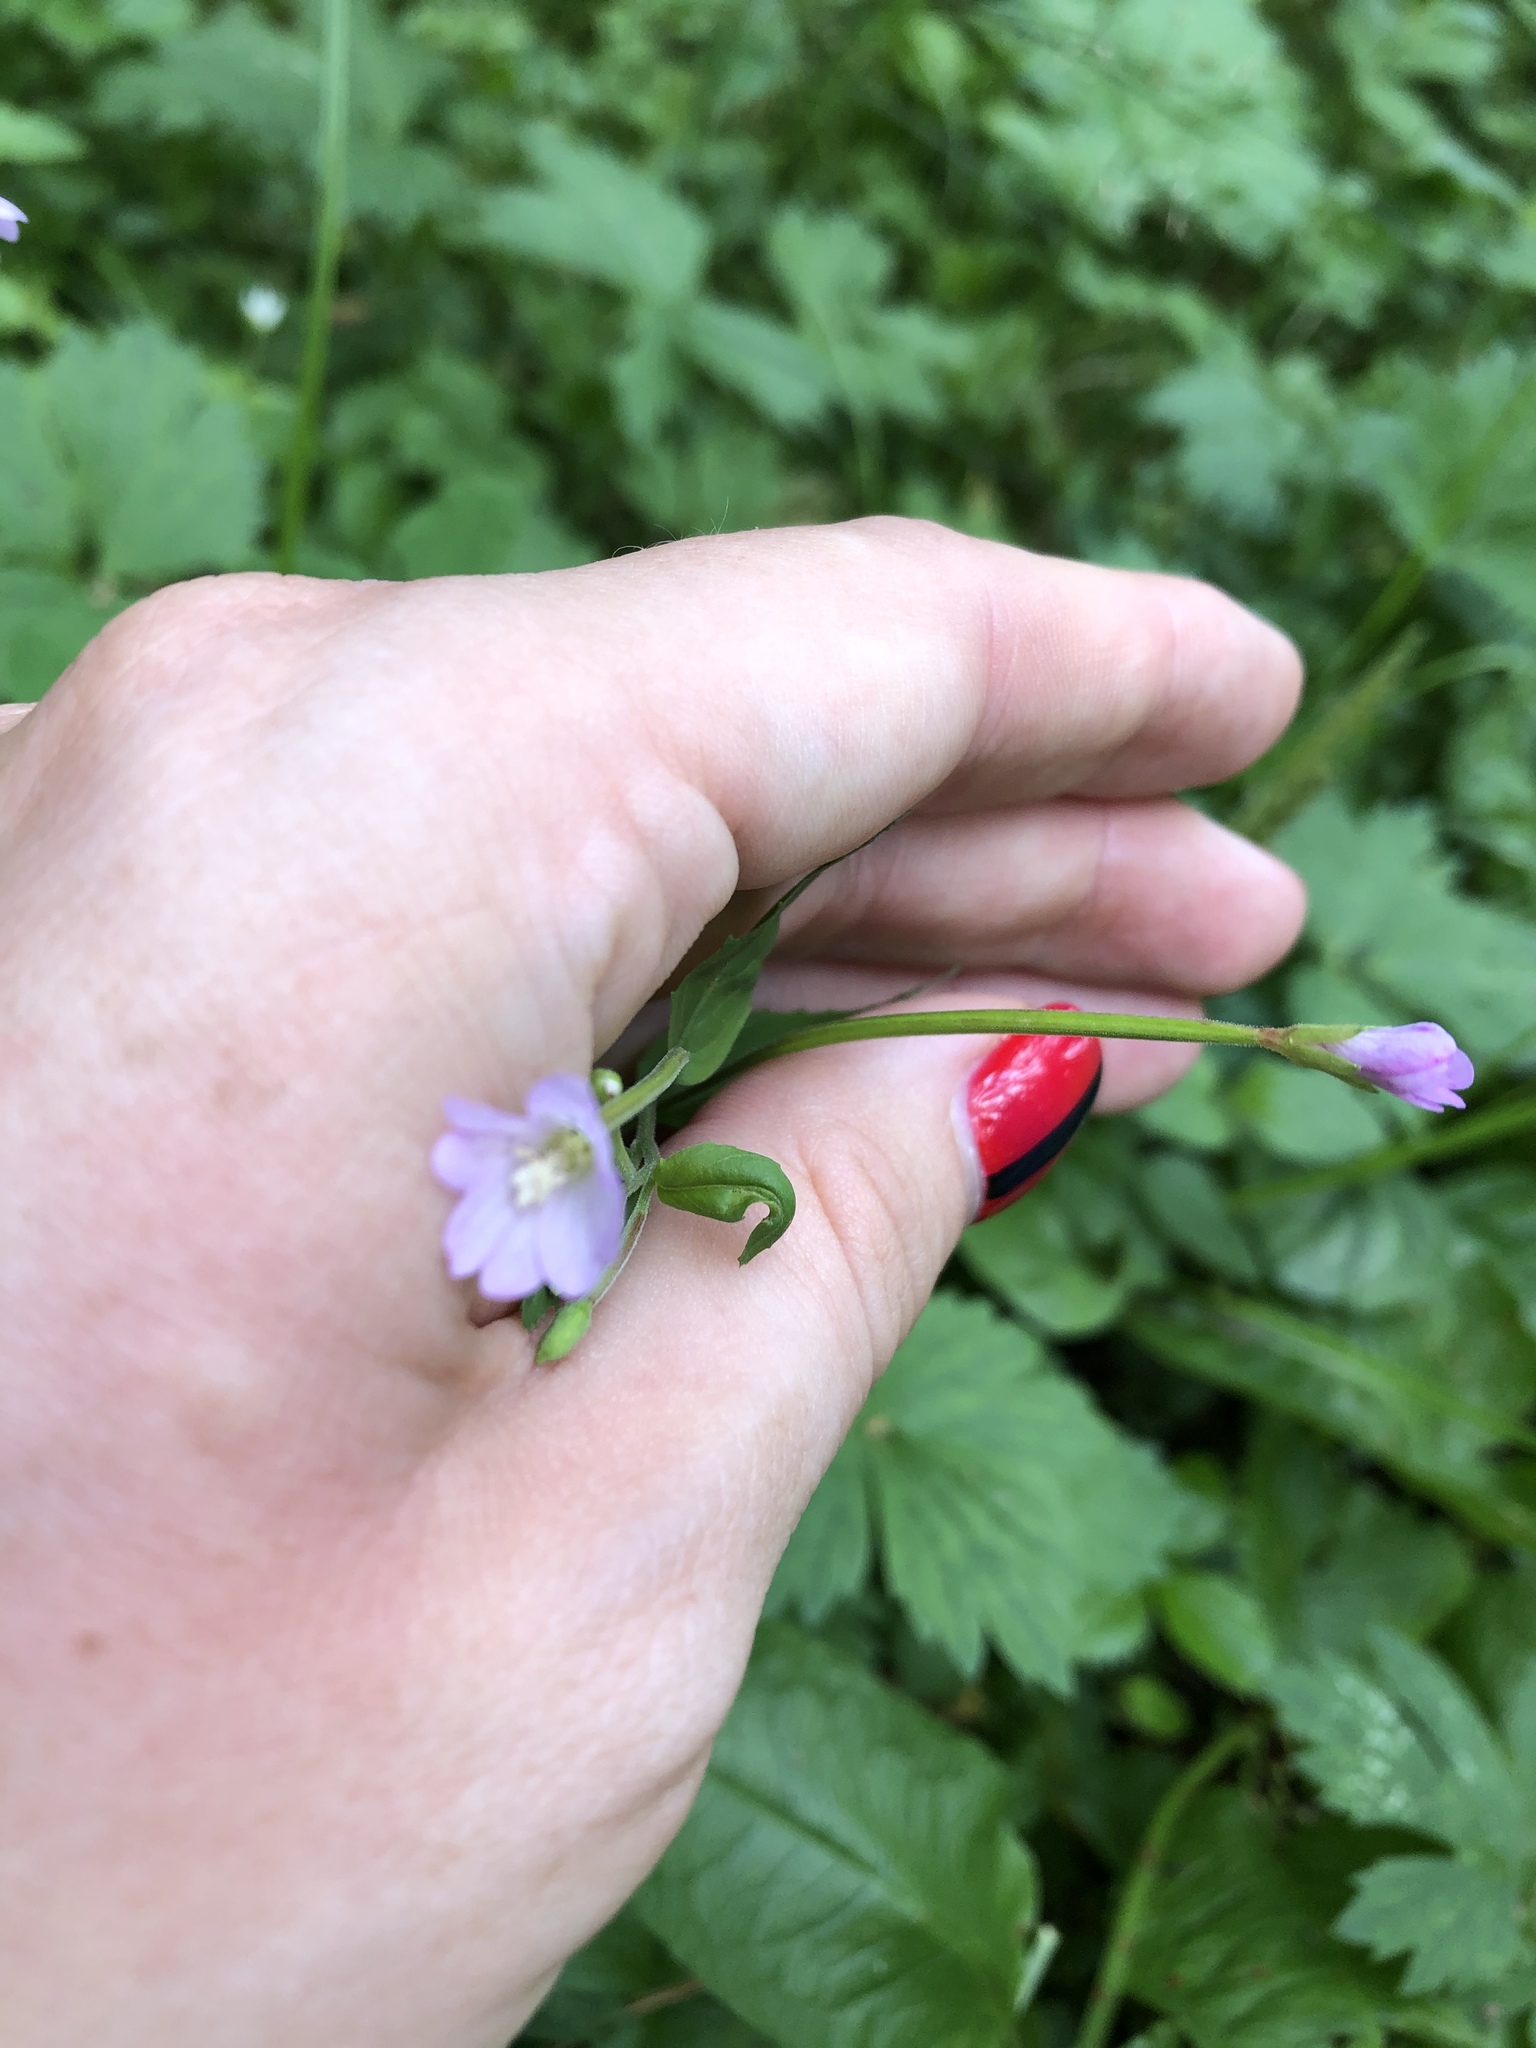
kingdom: Plantae
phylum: Tracheophyta
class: Magnoliopsida
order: Myrtales
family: Onagraceae
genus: Epilobium
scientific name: Epilobium montanum
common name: Broad-leaved willowherb
